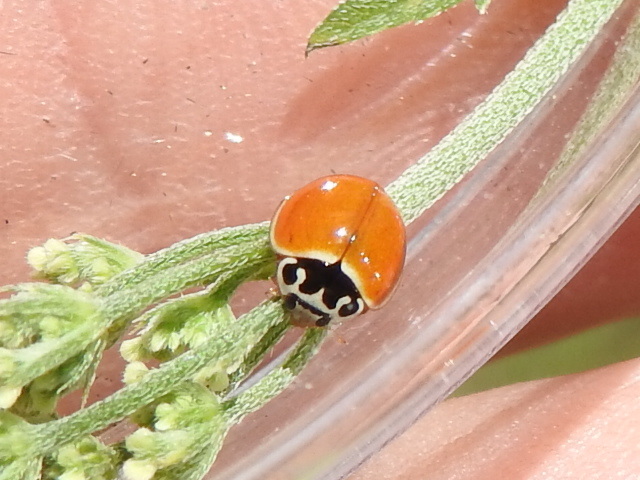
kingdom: Animalia
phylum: Arthropoda
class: Insecta
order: Coleoptera
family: Coccinellidae
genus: Cycloneda
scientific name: Cycloneda munda
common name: Polished lady beetle
